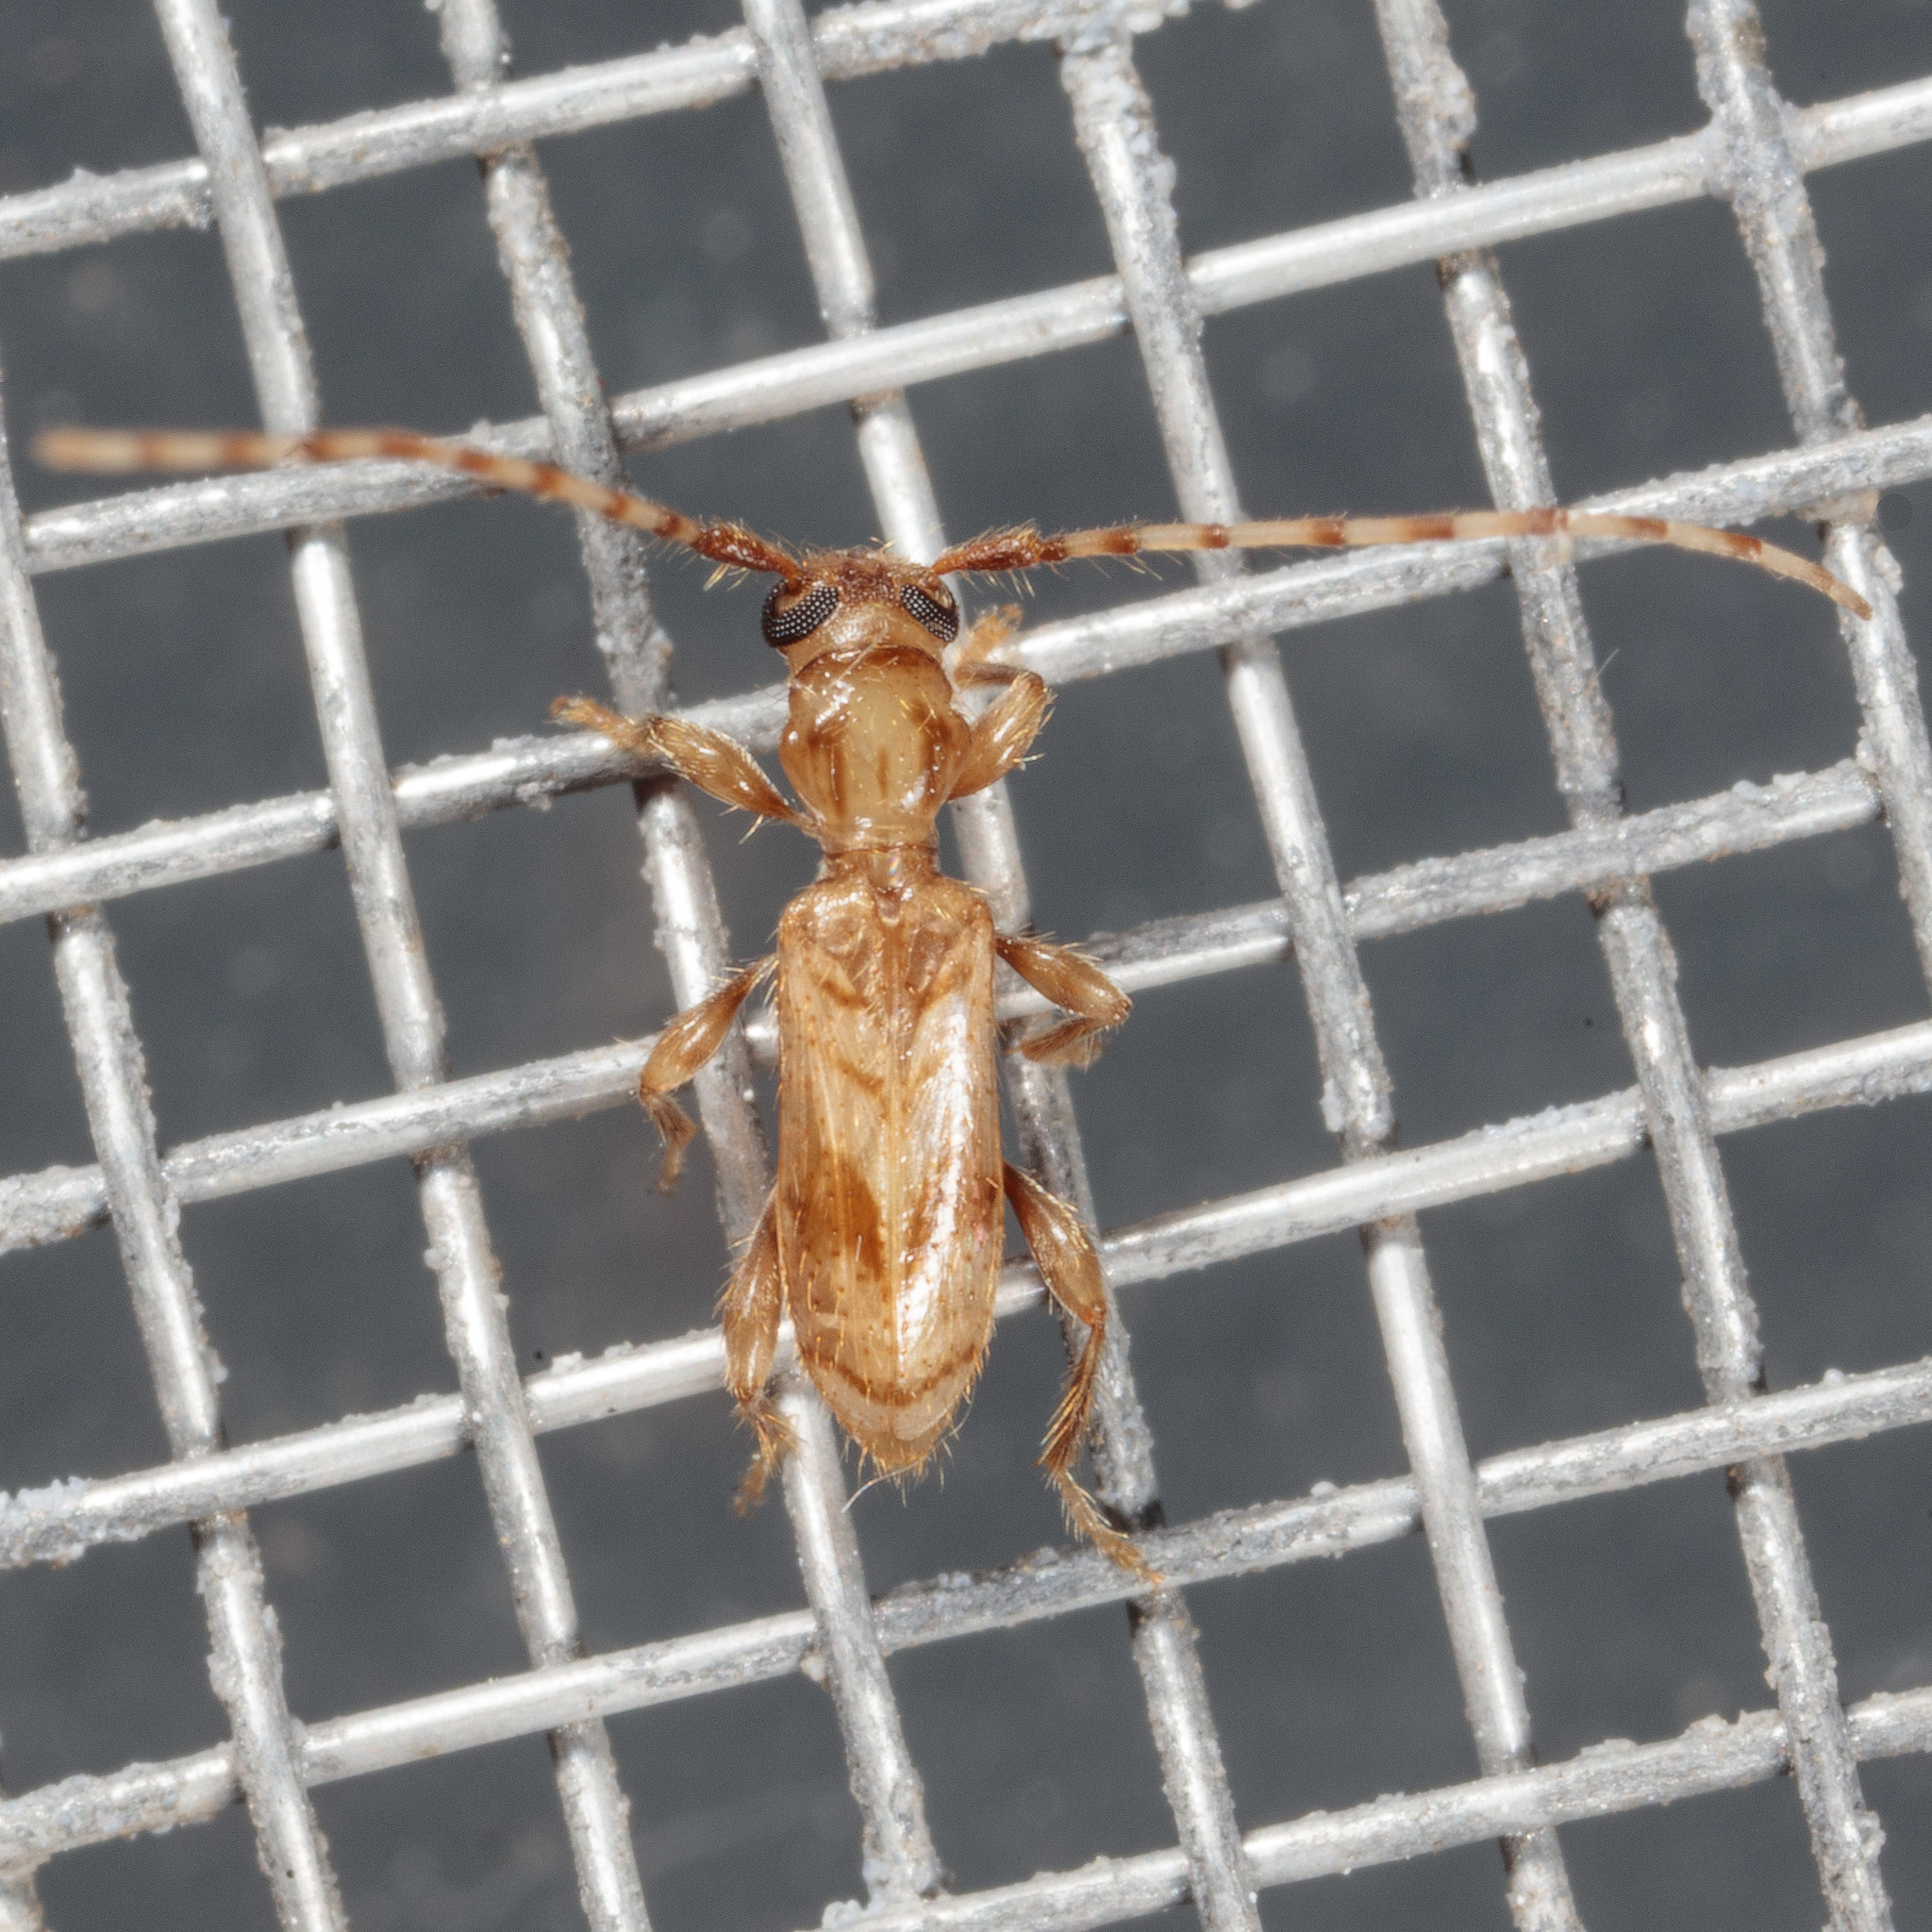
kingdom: Animalia
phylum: Arthropoda
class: Insecta
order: Coleoptera
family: Cerambycidae
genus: Obrium
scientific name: Obrium maculatum
